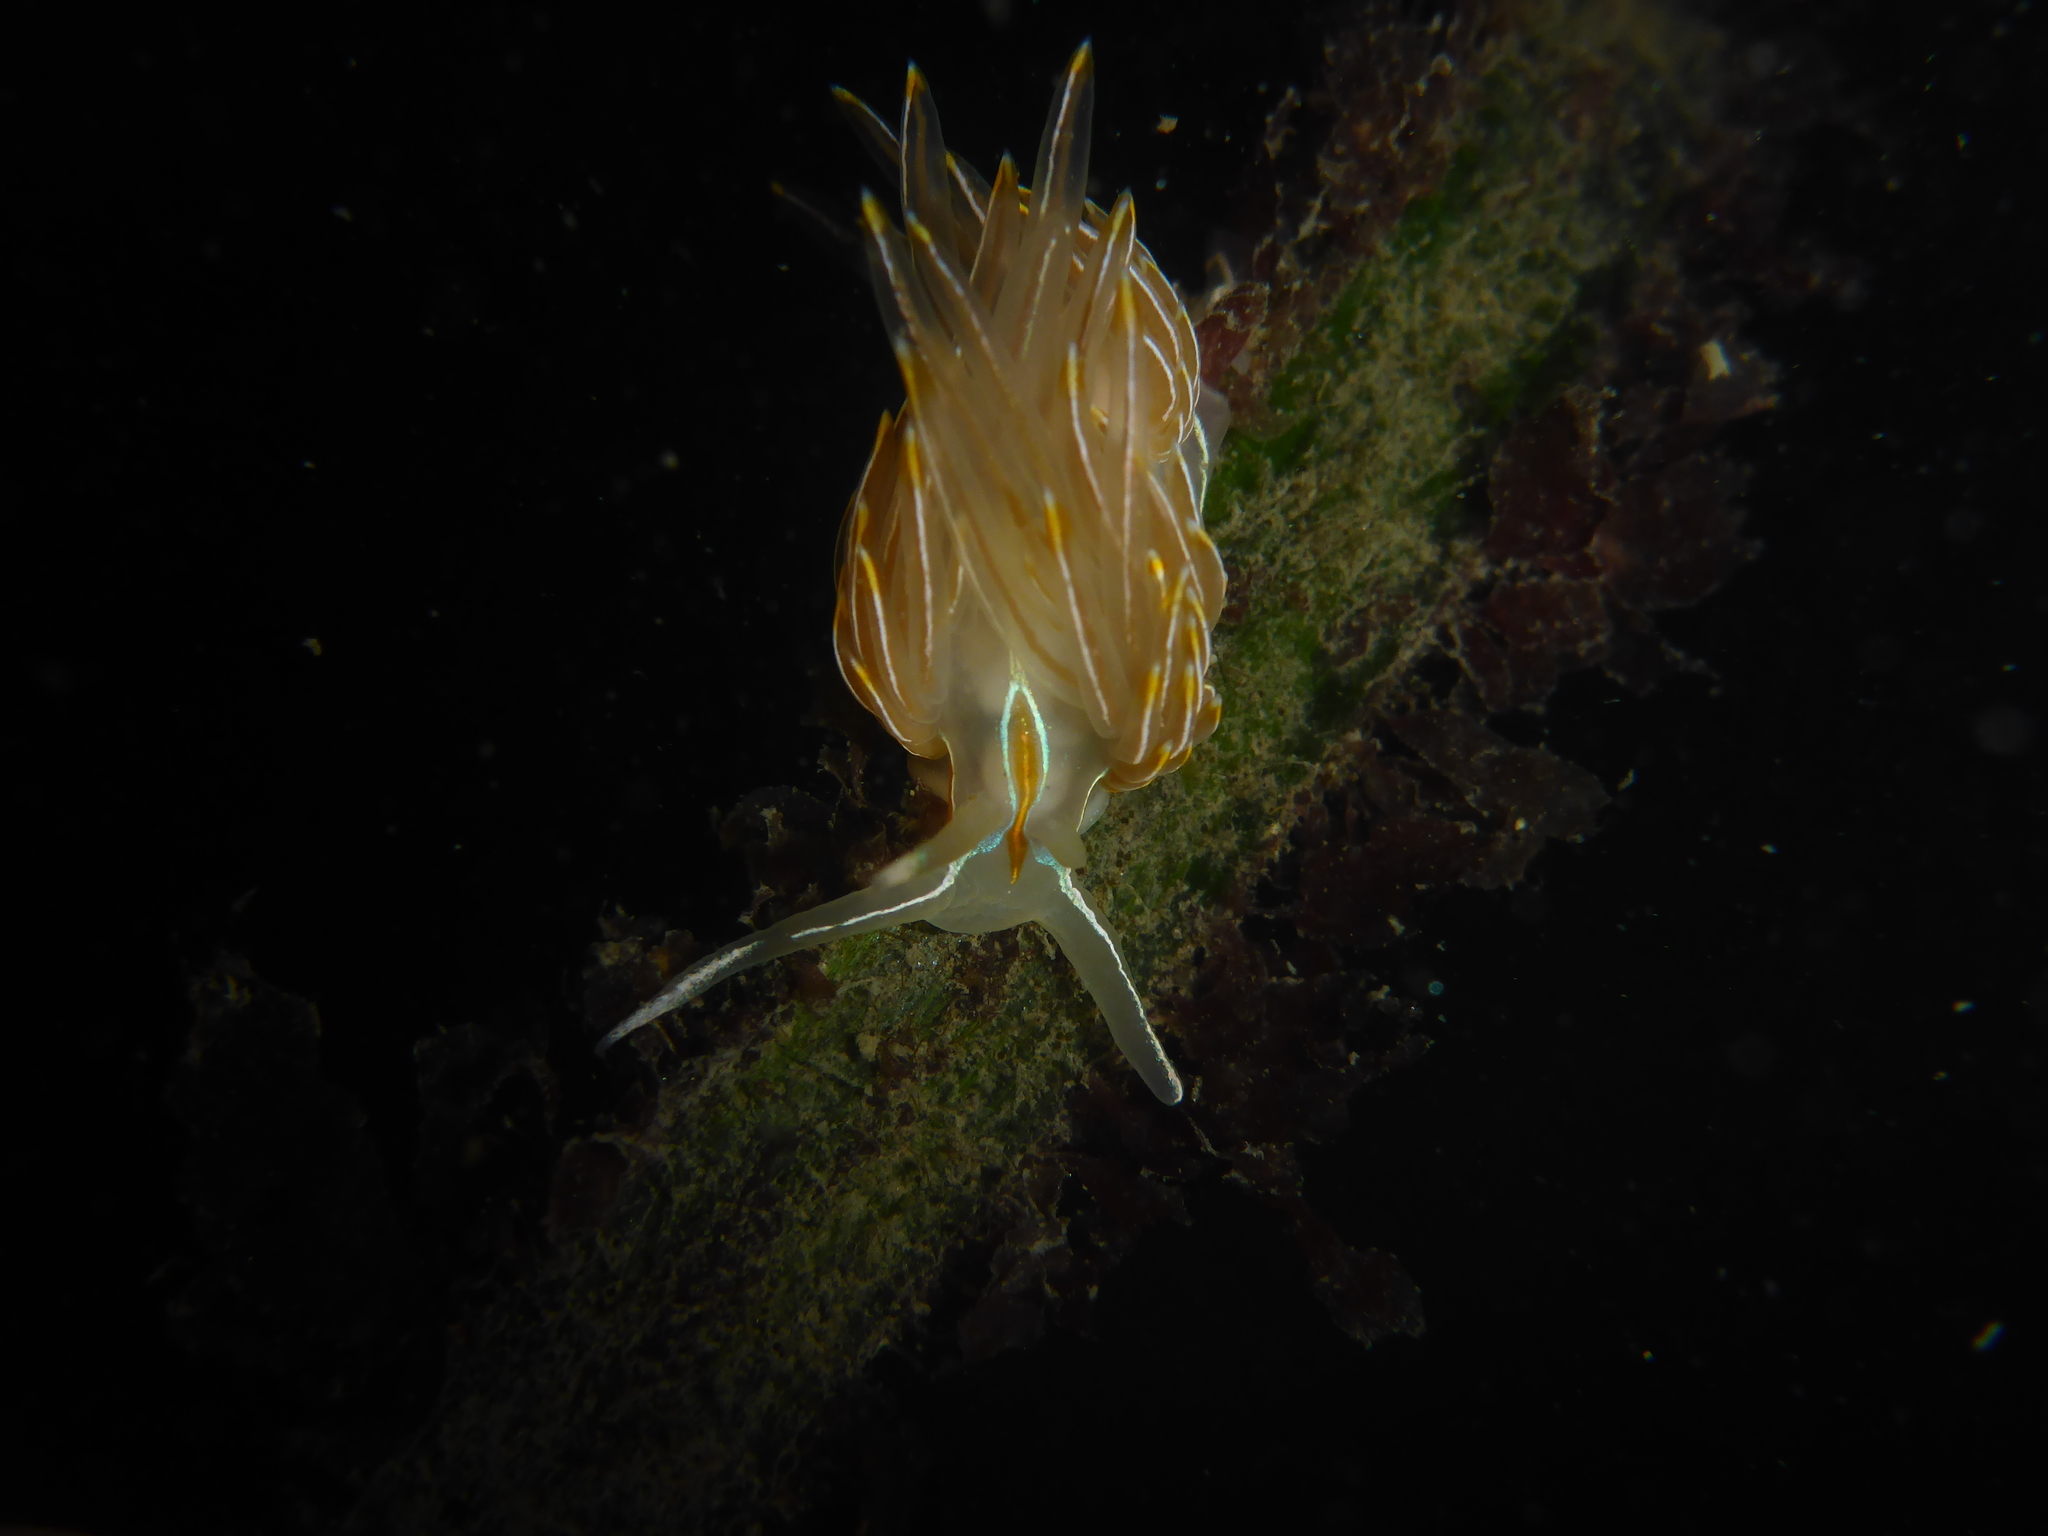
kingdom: Animalia
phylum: Mollusca
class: Gastropoda
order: Nudibranchia
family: Myrrhinidae
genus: Hermissenda
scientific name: Hermissenda crassicornis
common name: Hermissenda
